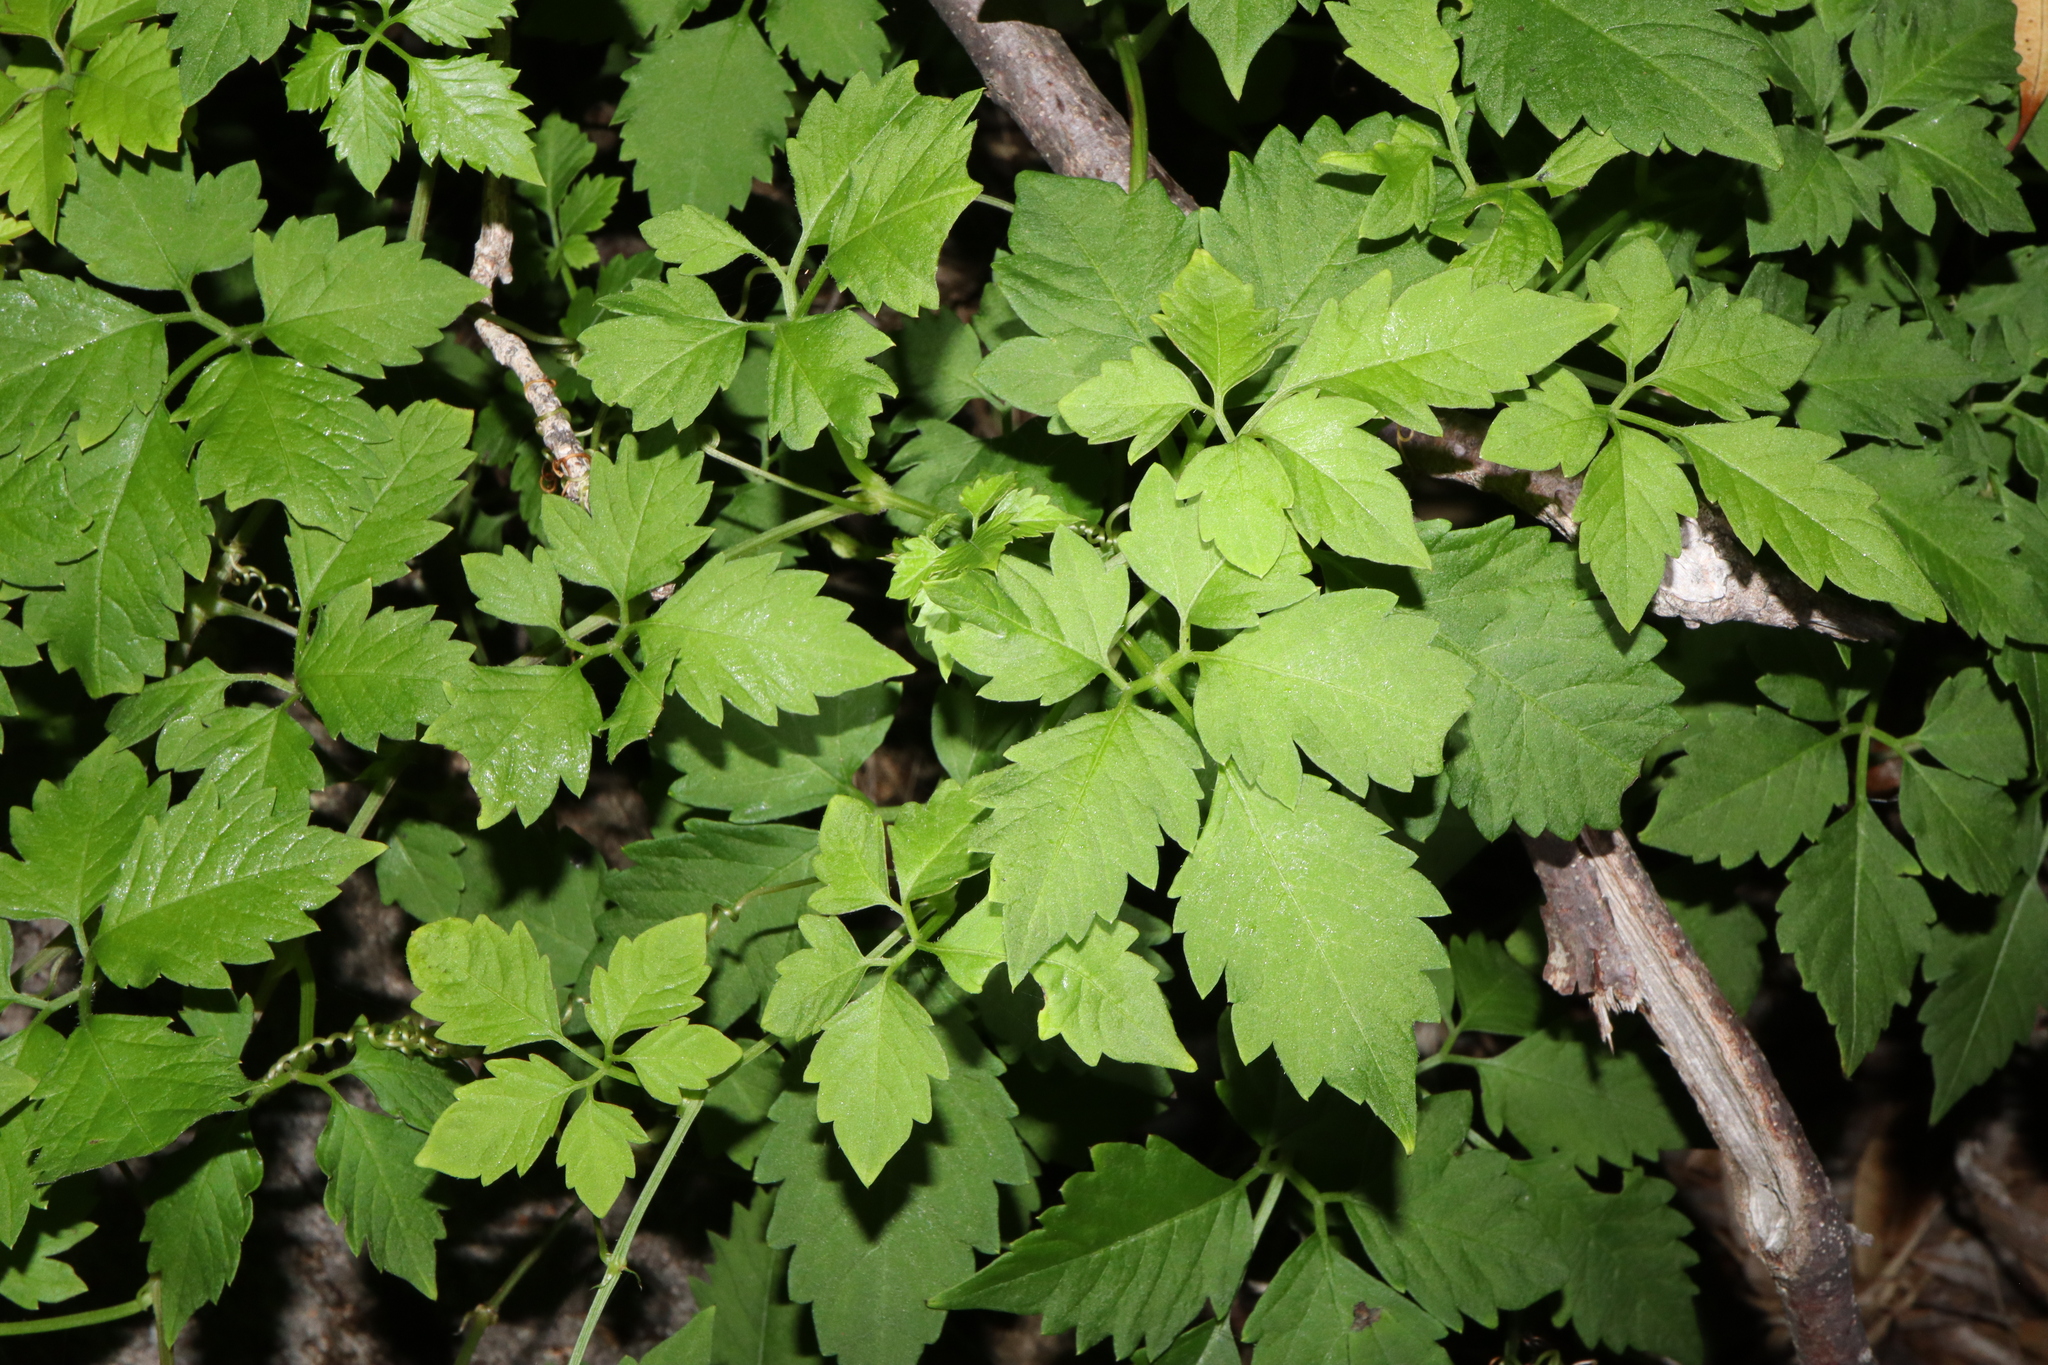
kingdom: Plantae
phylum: Tracheophyta
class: Magnoliopsida
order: Vitales
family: Vitaceae
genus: Causonis
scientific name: Causonis clematidea
